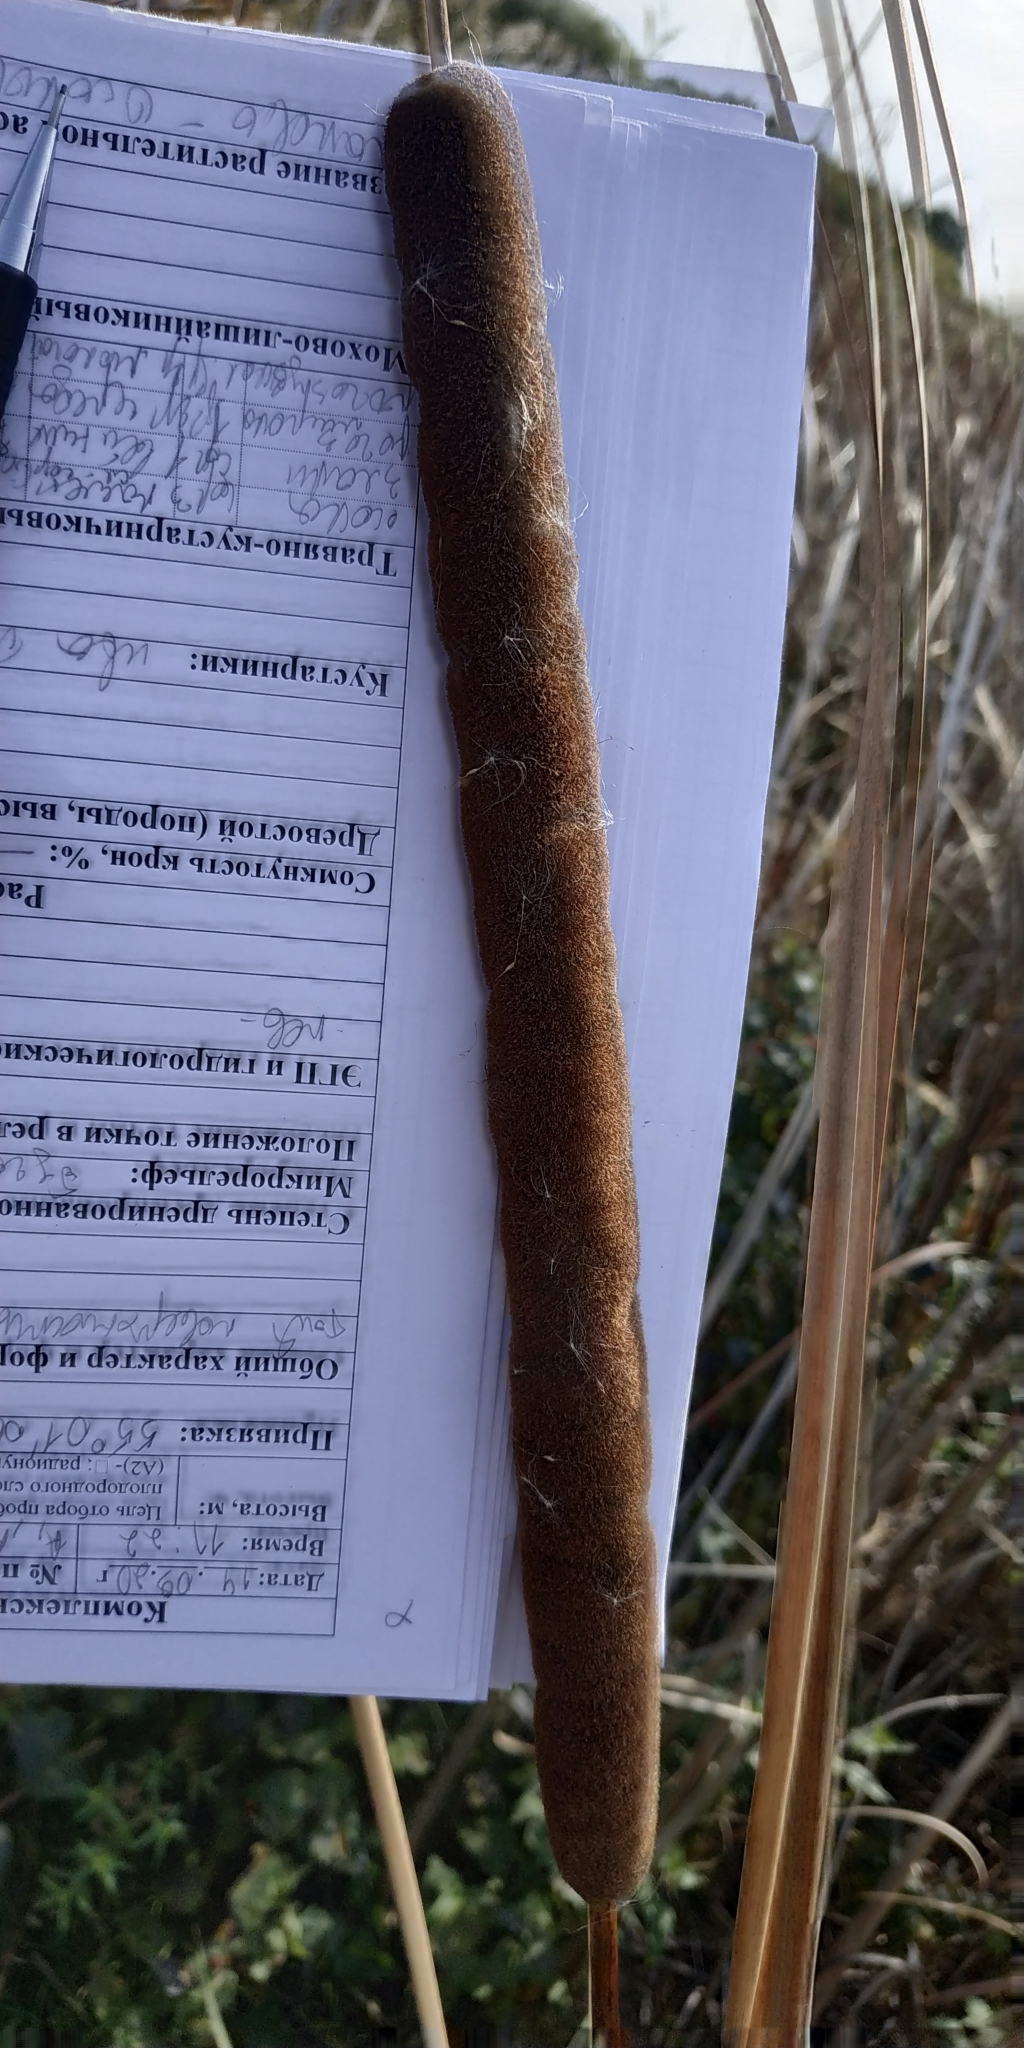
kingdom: Plantae
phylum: Tracheophyta
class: Liliopsida
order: Poales
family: Typhaceae
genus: Typha
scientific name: Typha angustifolia
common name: Lesser bulrush
